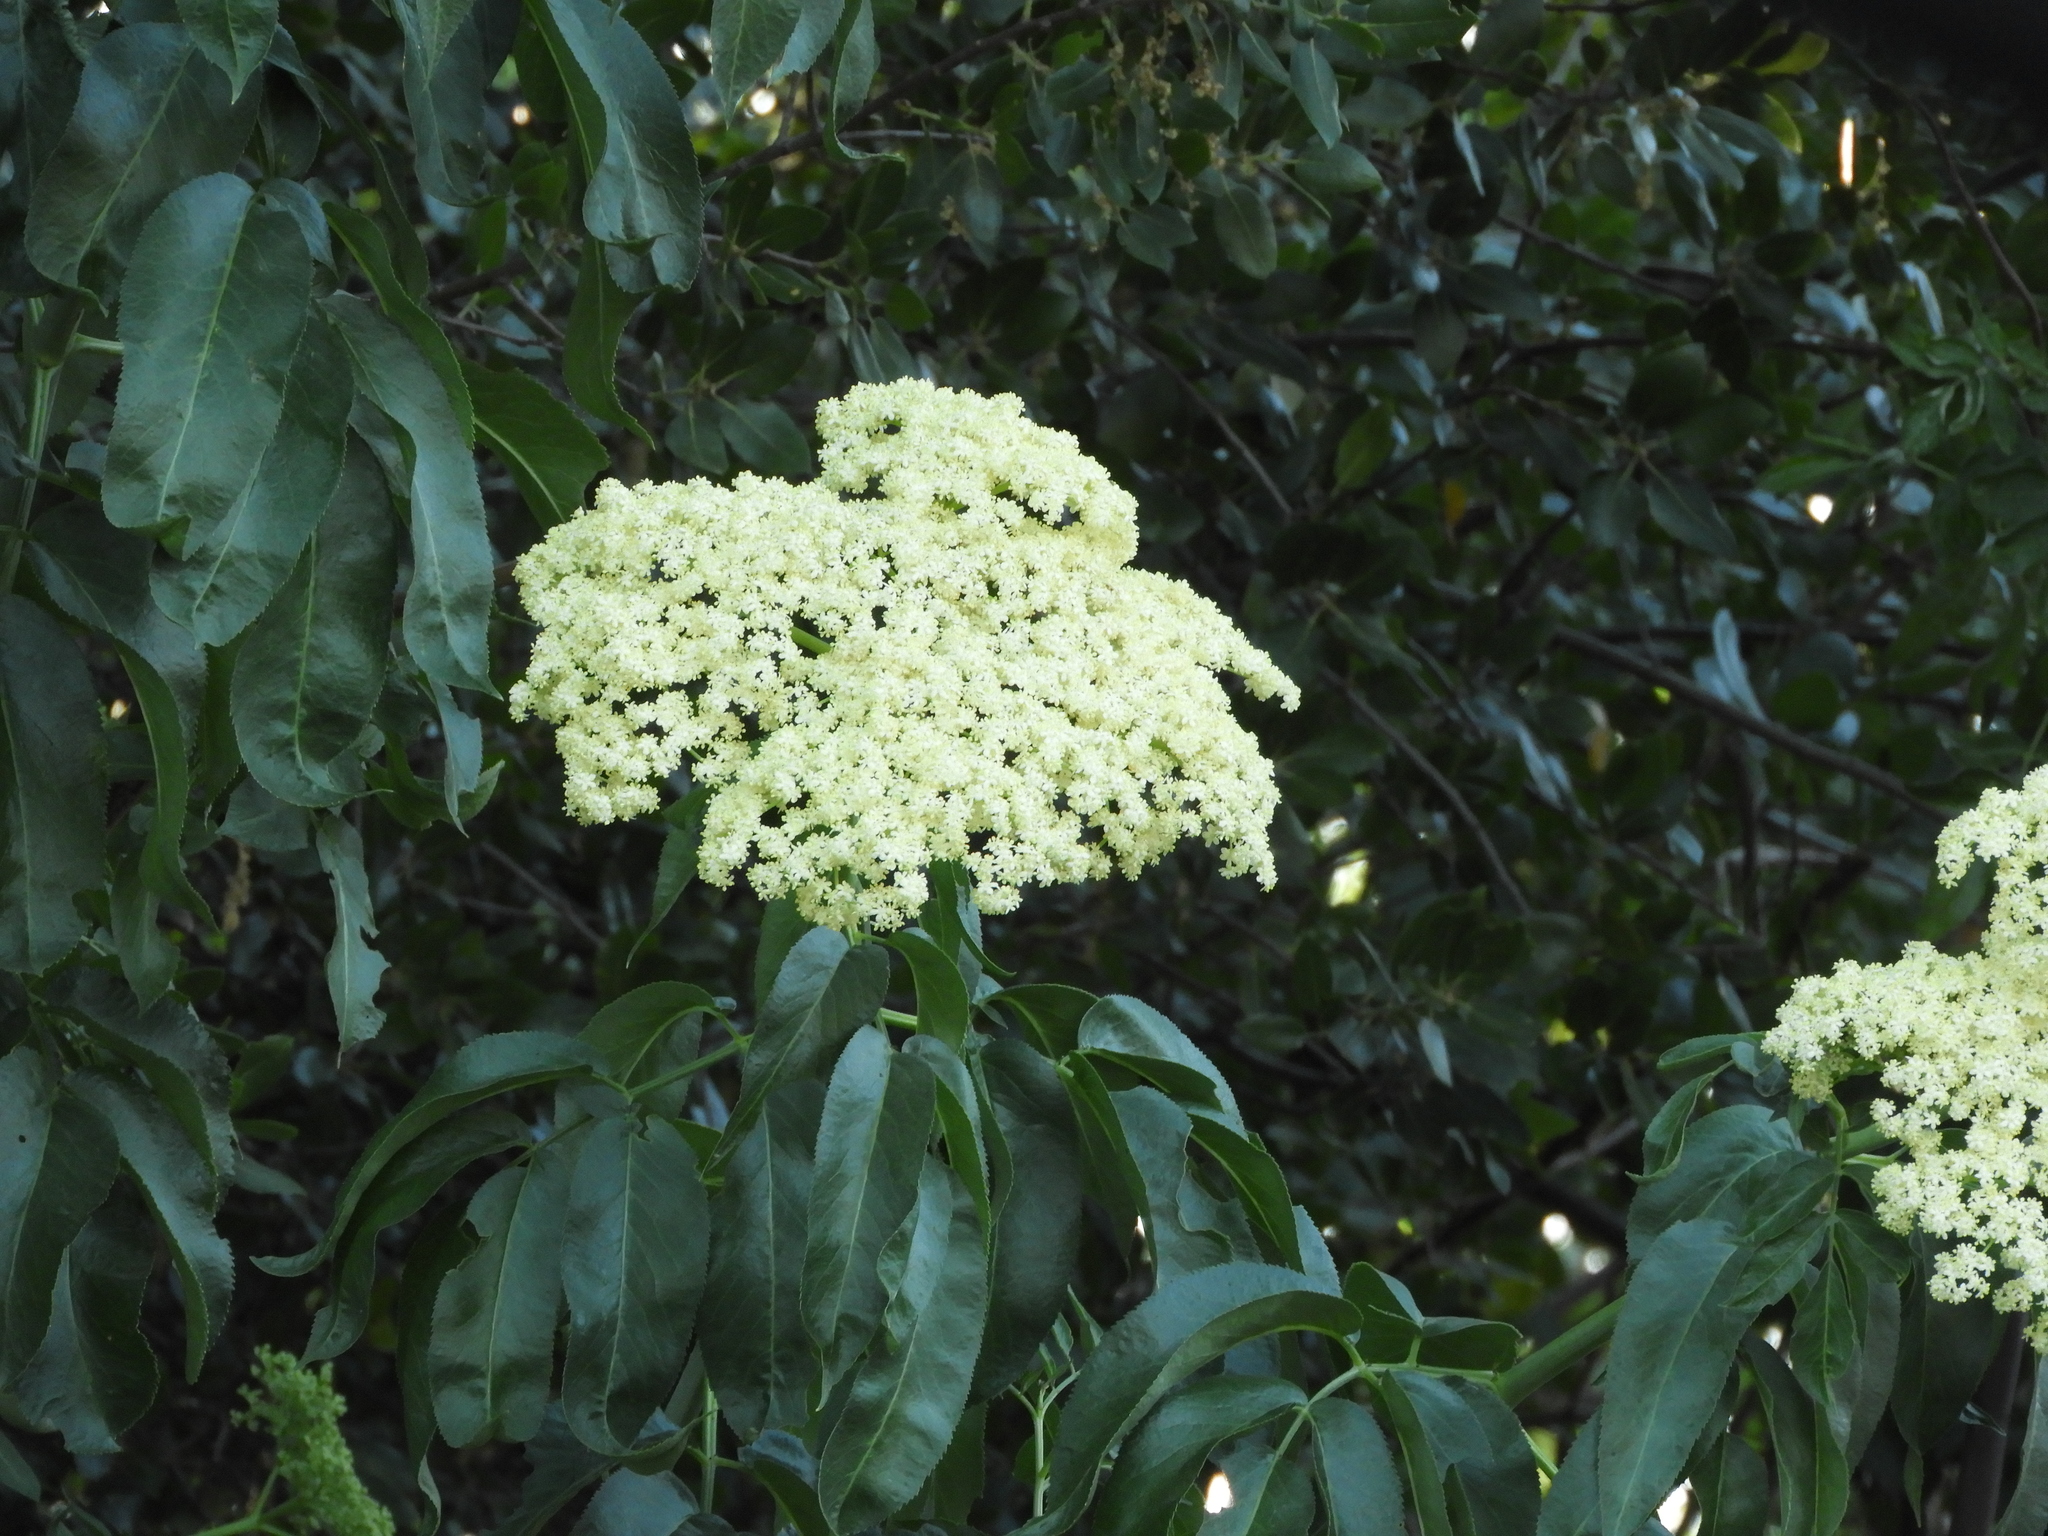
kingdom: Plantae
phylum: Tracheophyta
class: Magnoliopsida
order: Dipsacales
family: Viburnaceae
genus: Sambucus
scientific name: Sambucus cerulea
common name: Blue elder
